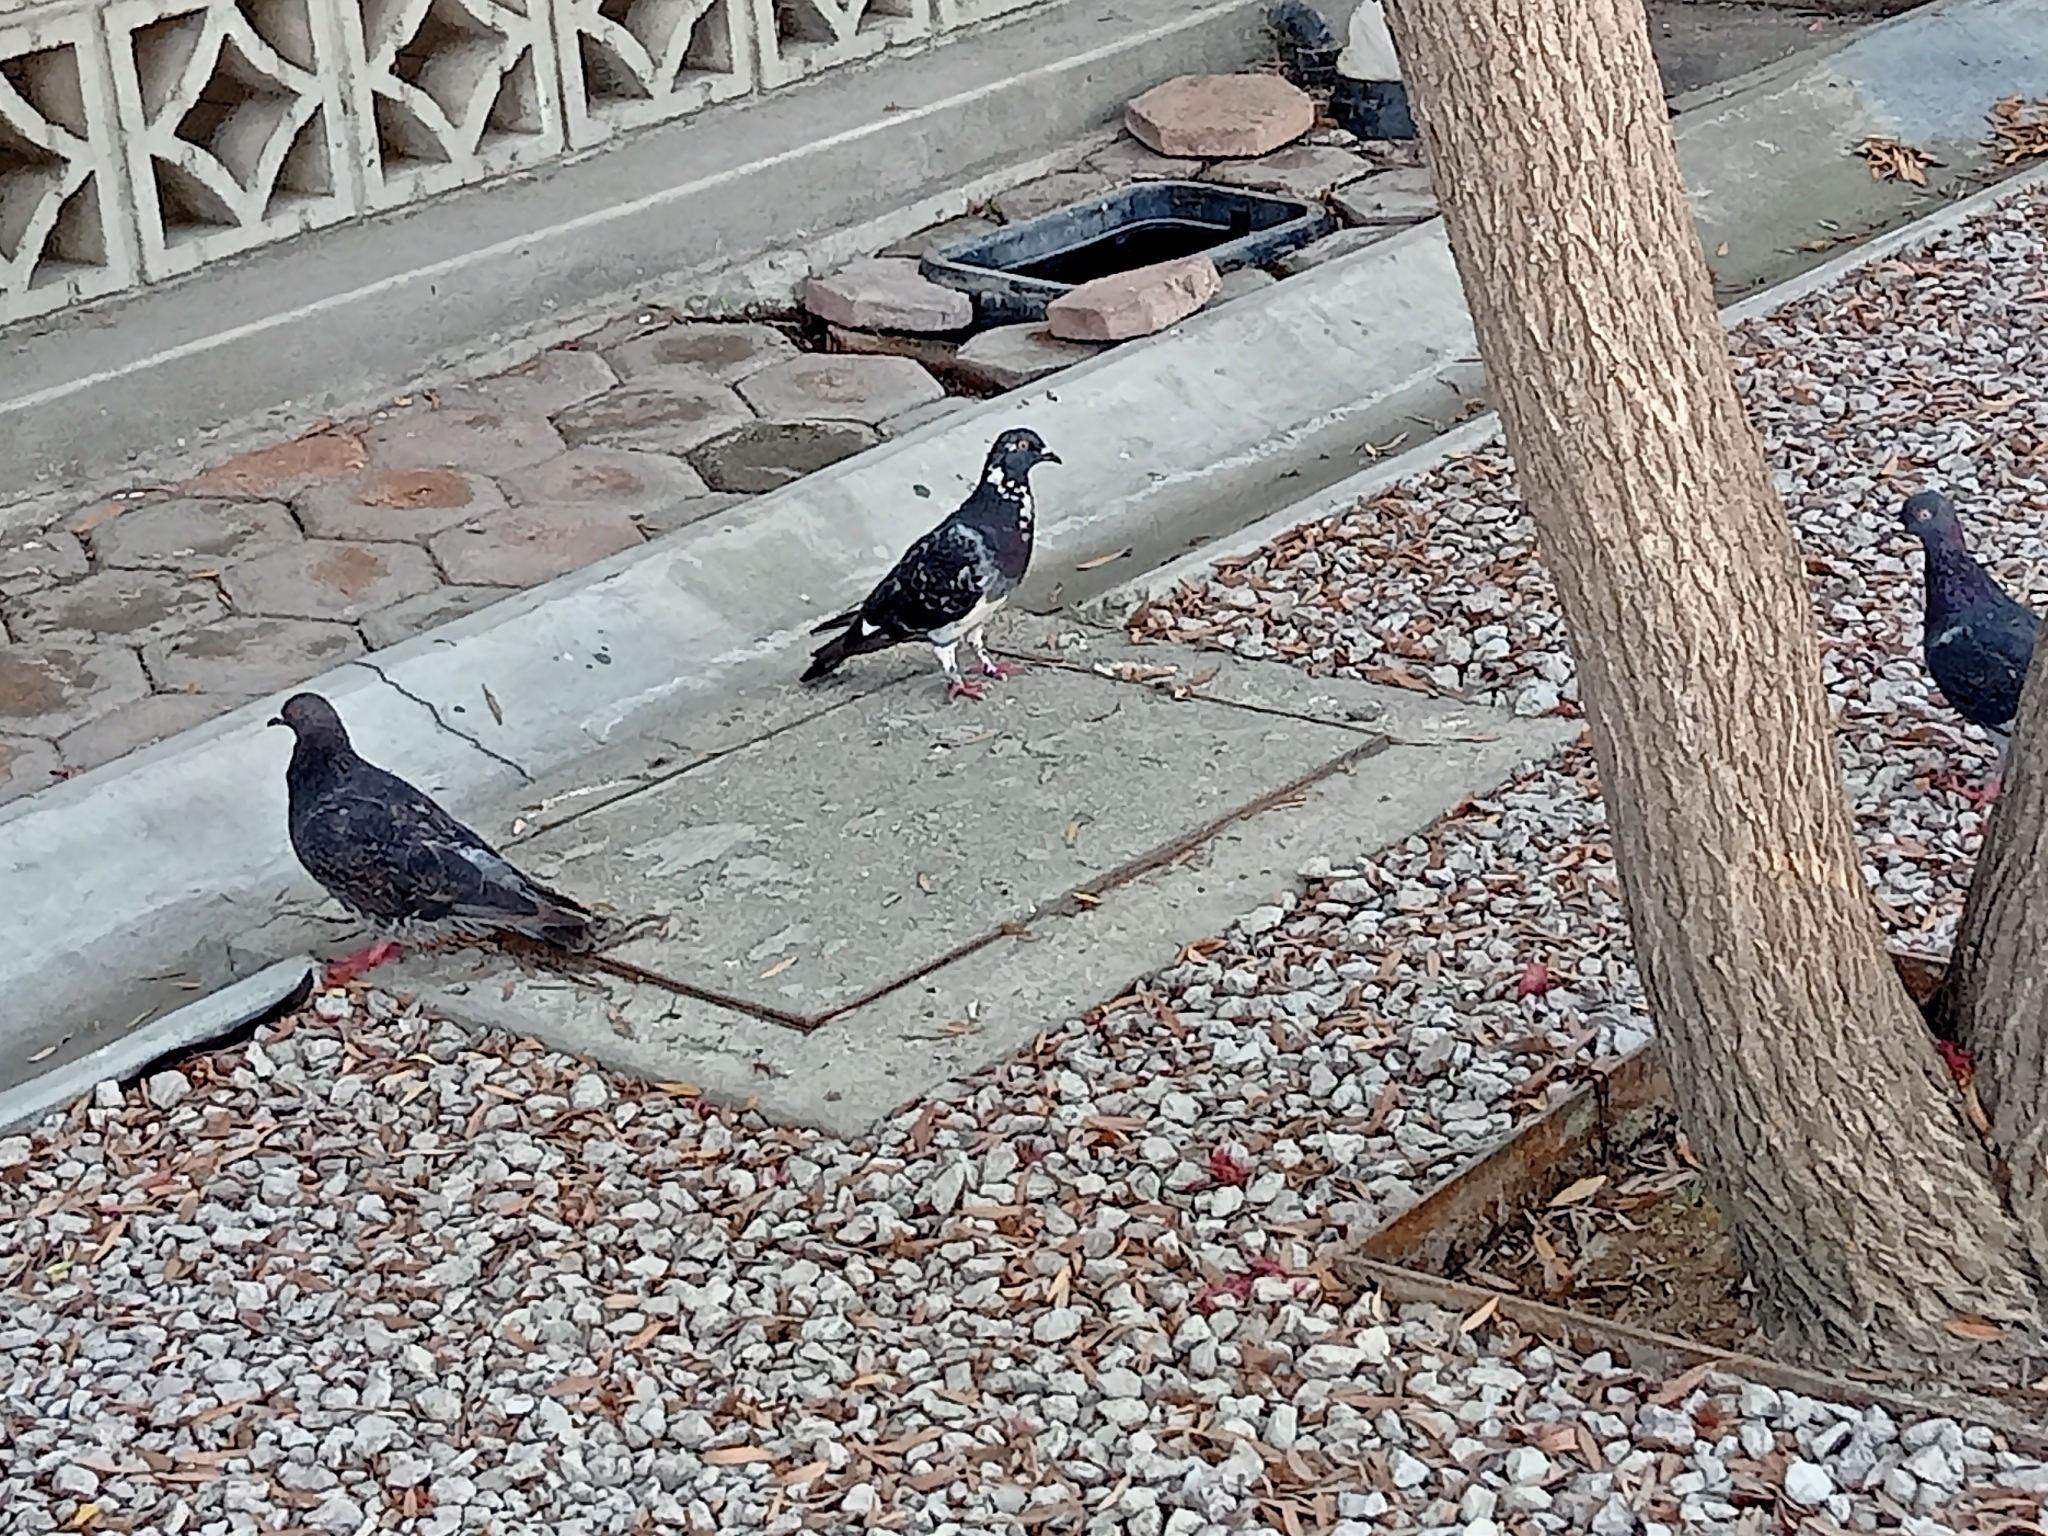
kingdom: Animalia
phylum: Chordata
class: Aves
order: Columbiformes
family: Columbidae
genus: Columba
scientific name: Columba livia
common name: Rock pigeon
